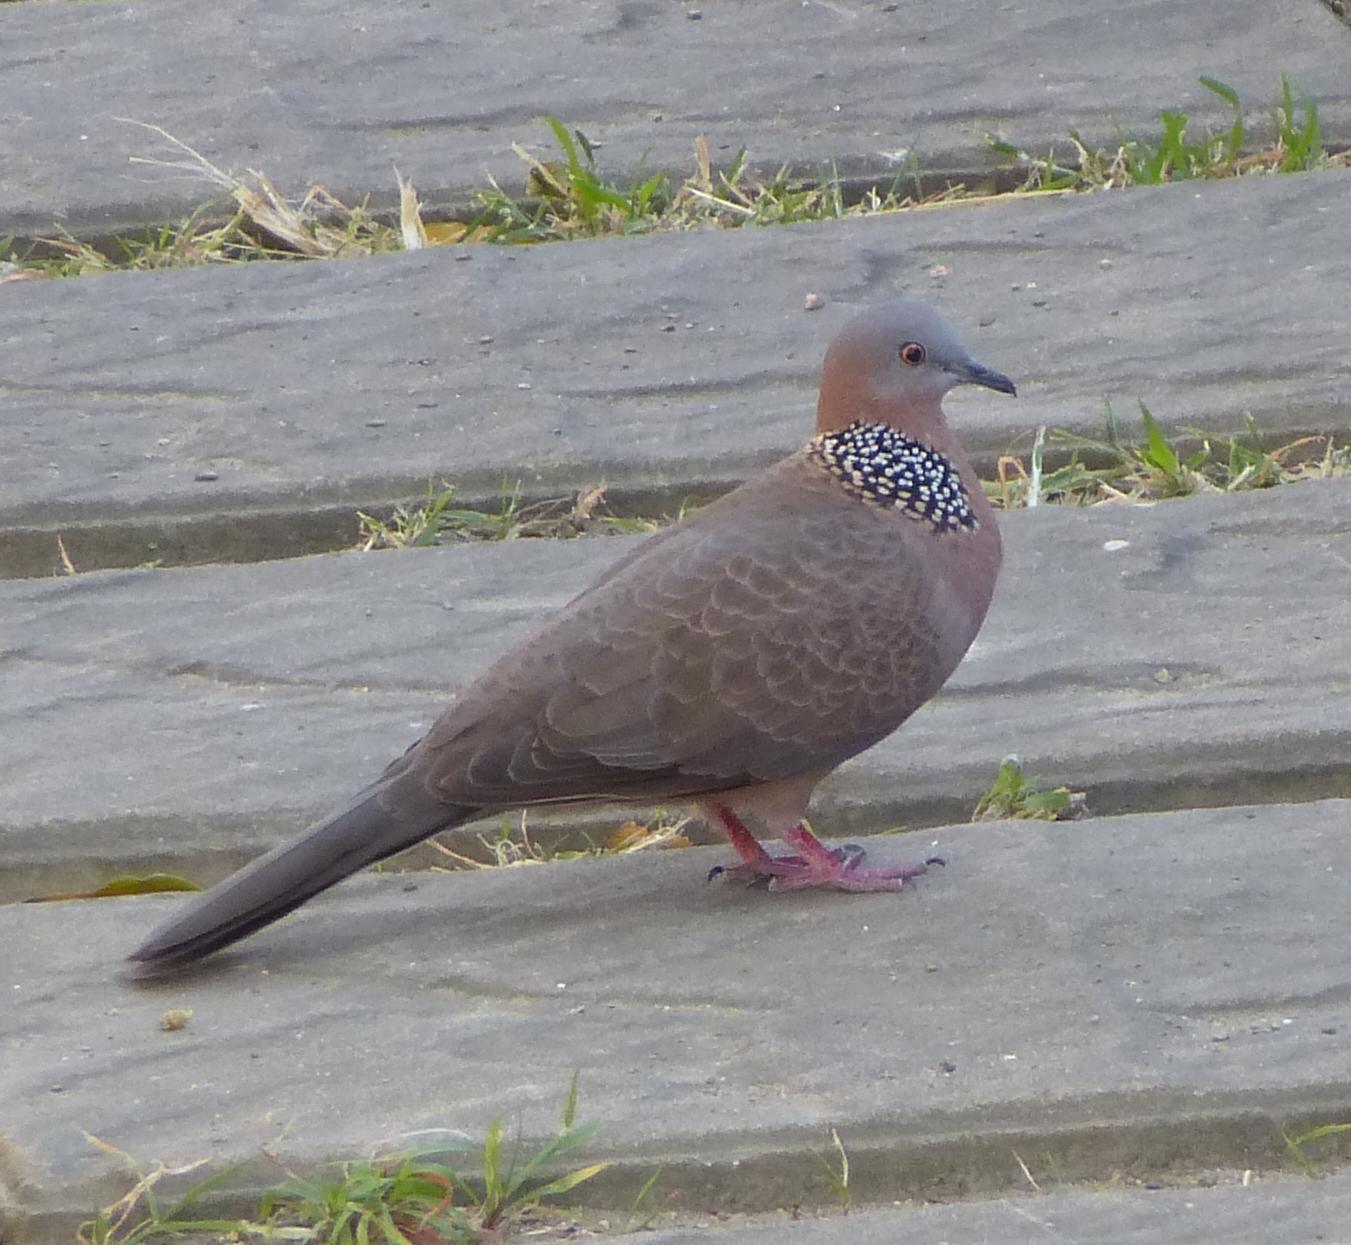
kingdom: Animalia
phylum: Chordata
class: Aves
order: Columbiformes
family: Columbidae
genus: Spilopelia
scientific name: Spilopelia chinensis
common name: Spotted dove
